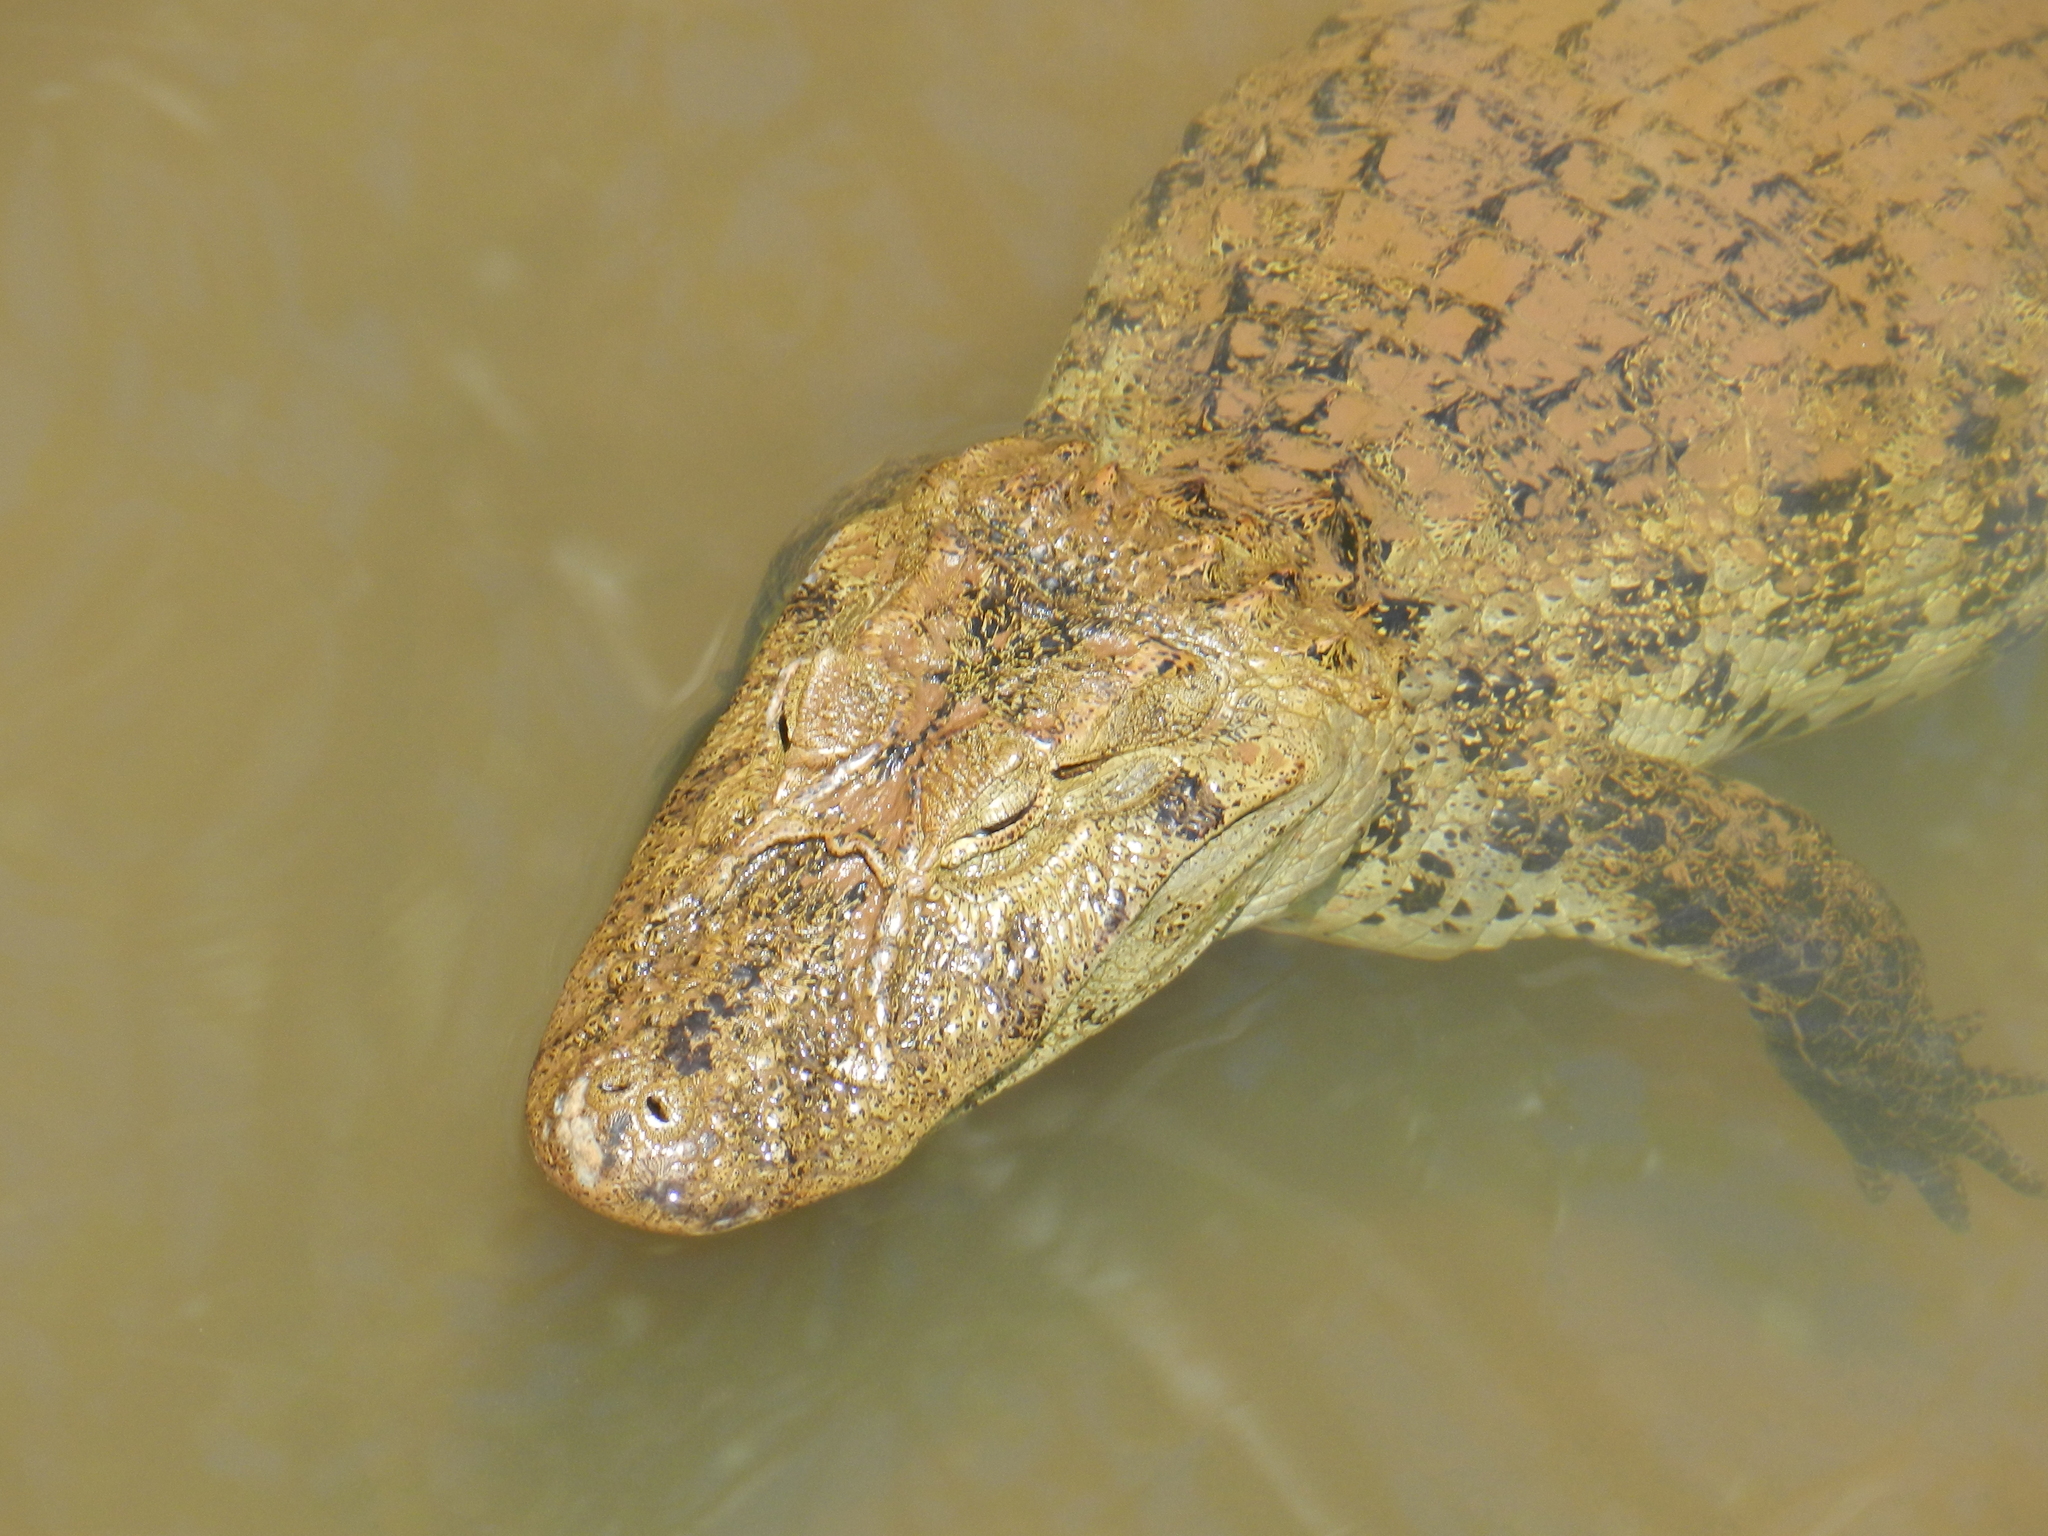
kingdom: Animalia
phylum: Chordata
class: Crocodylia
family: Alligatoridae
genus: Caiman
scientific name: Caiman latirostris
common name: Broad-snouted caiman
